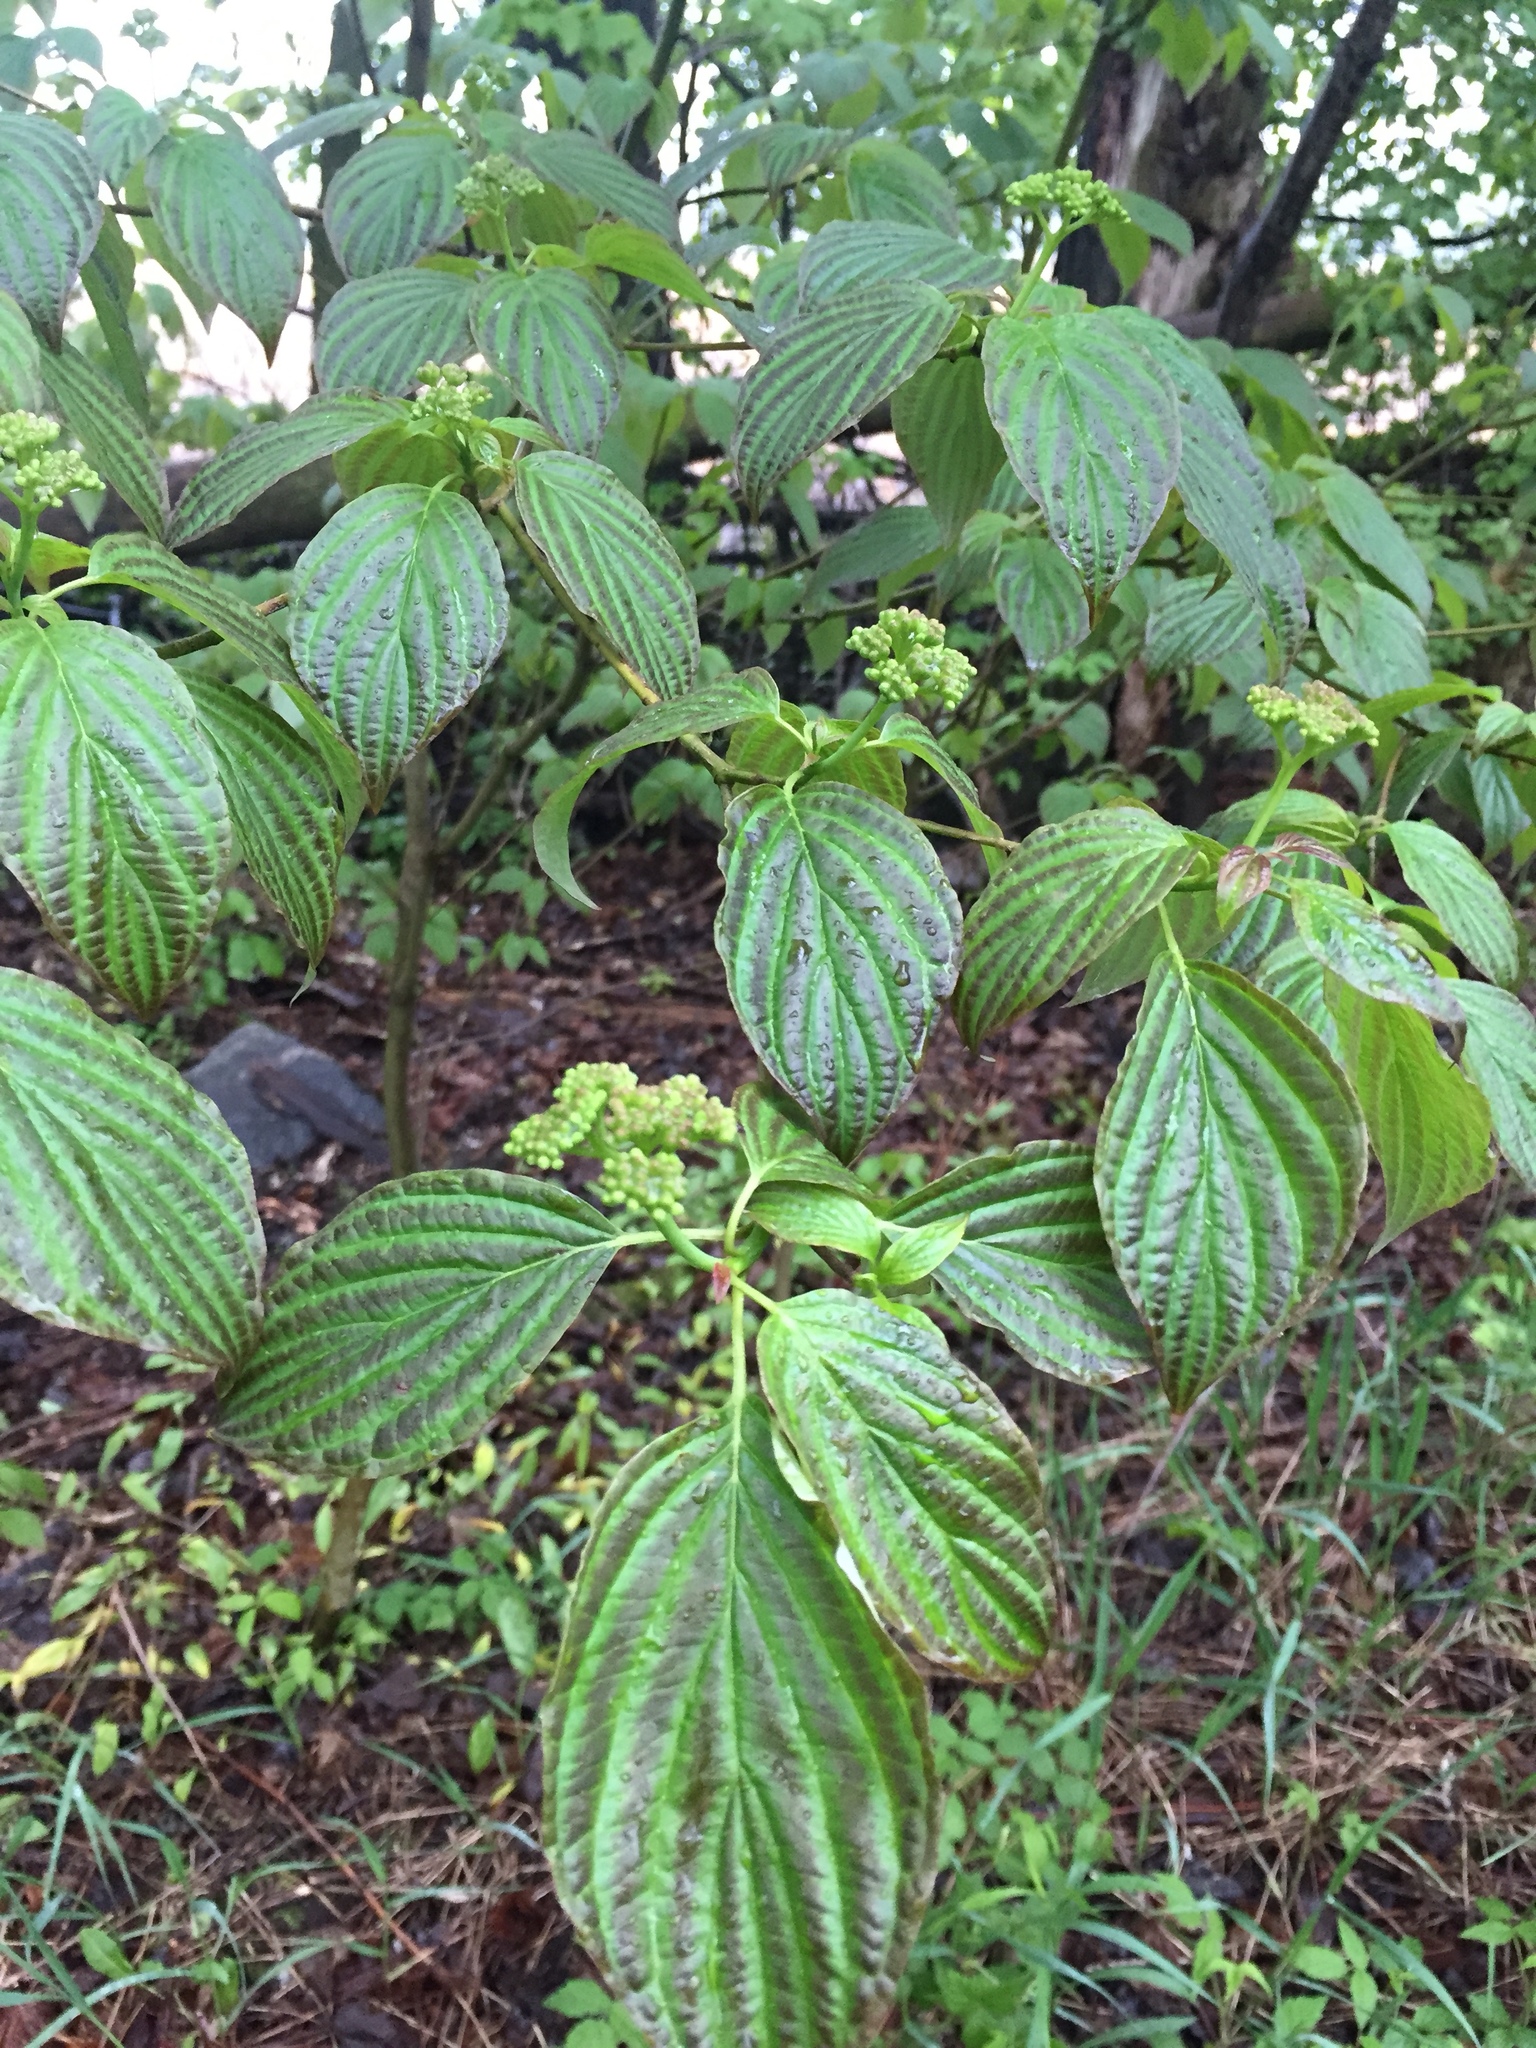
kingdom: Plantae
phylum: Tracheophyta
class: Magnoliopsida
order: Cornales
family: Cornaceae
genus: Cornus
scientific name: Cornus alternifolia
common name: Pagoda dogwood
